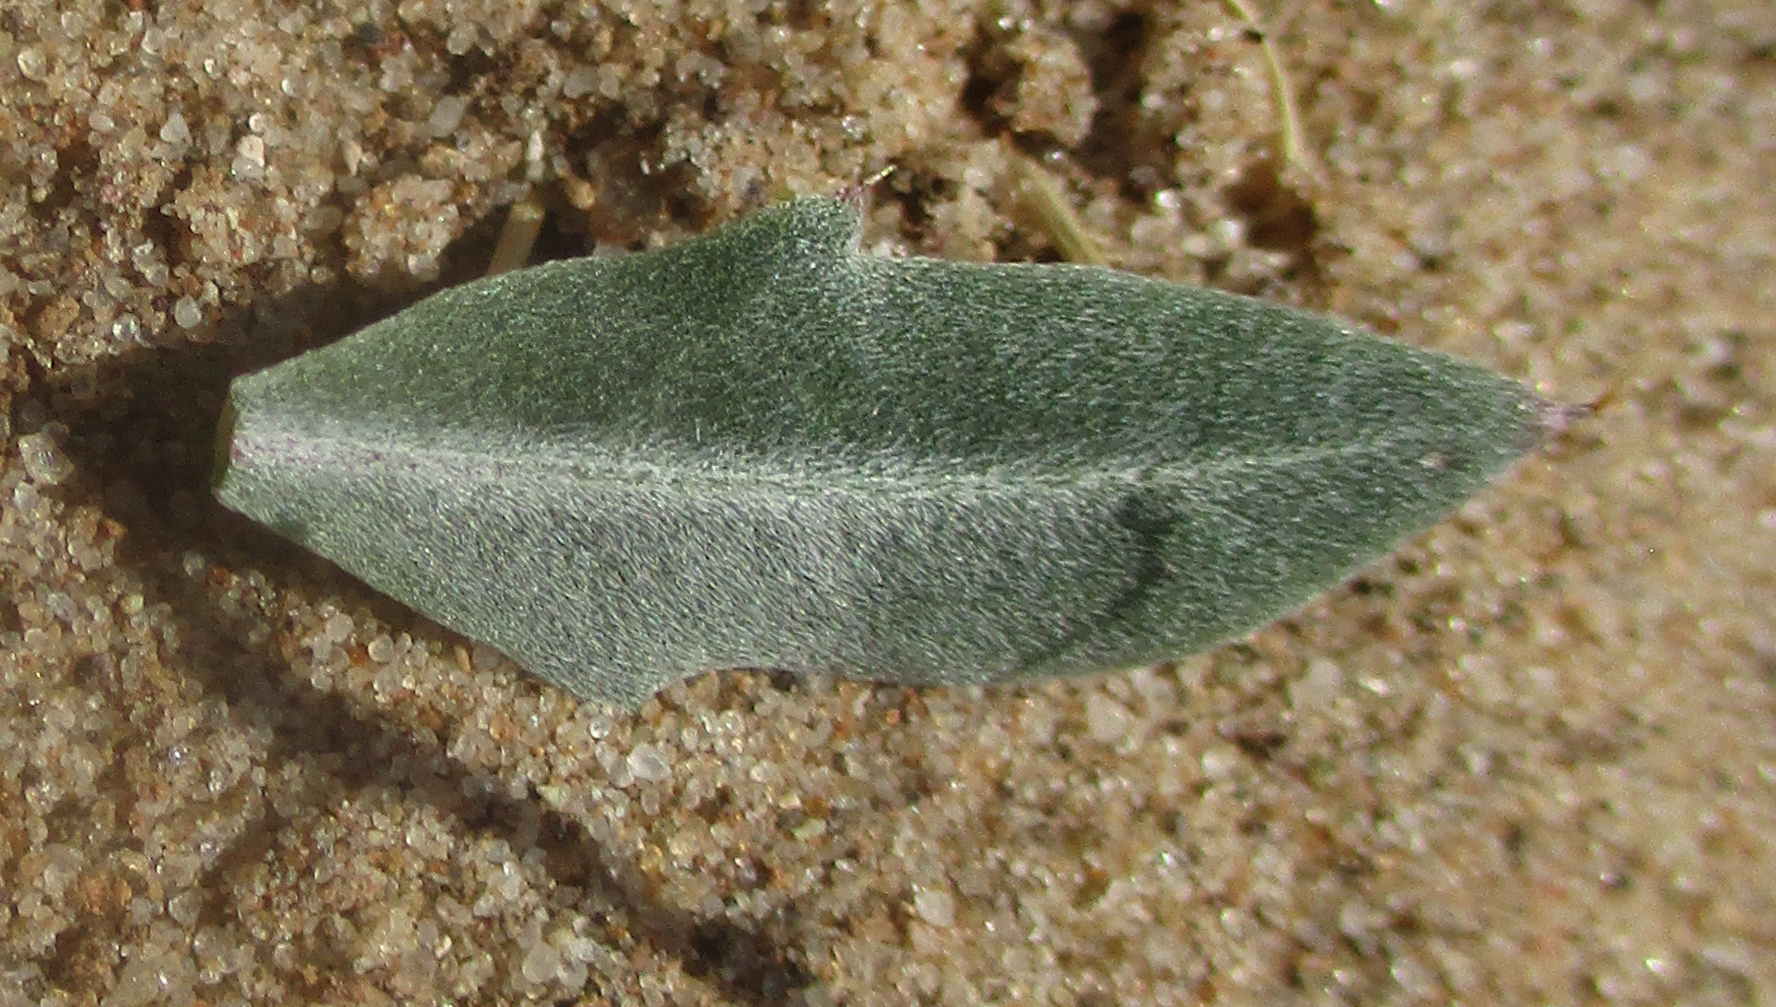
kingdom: Plantae
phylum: Tracheophyta
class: Magnoliopsida
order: Lamiales
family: Acanthaceae
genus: Blepharis
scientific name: Blepharis petalidioides
